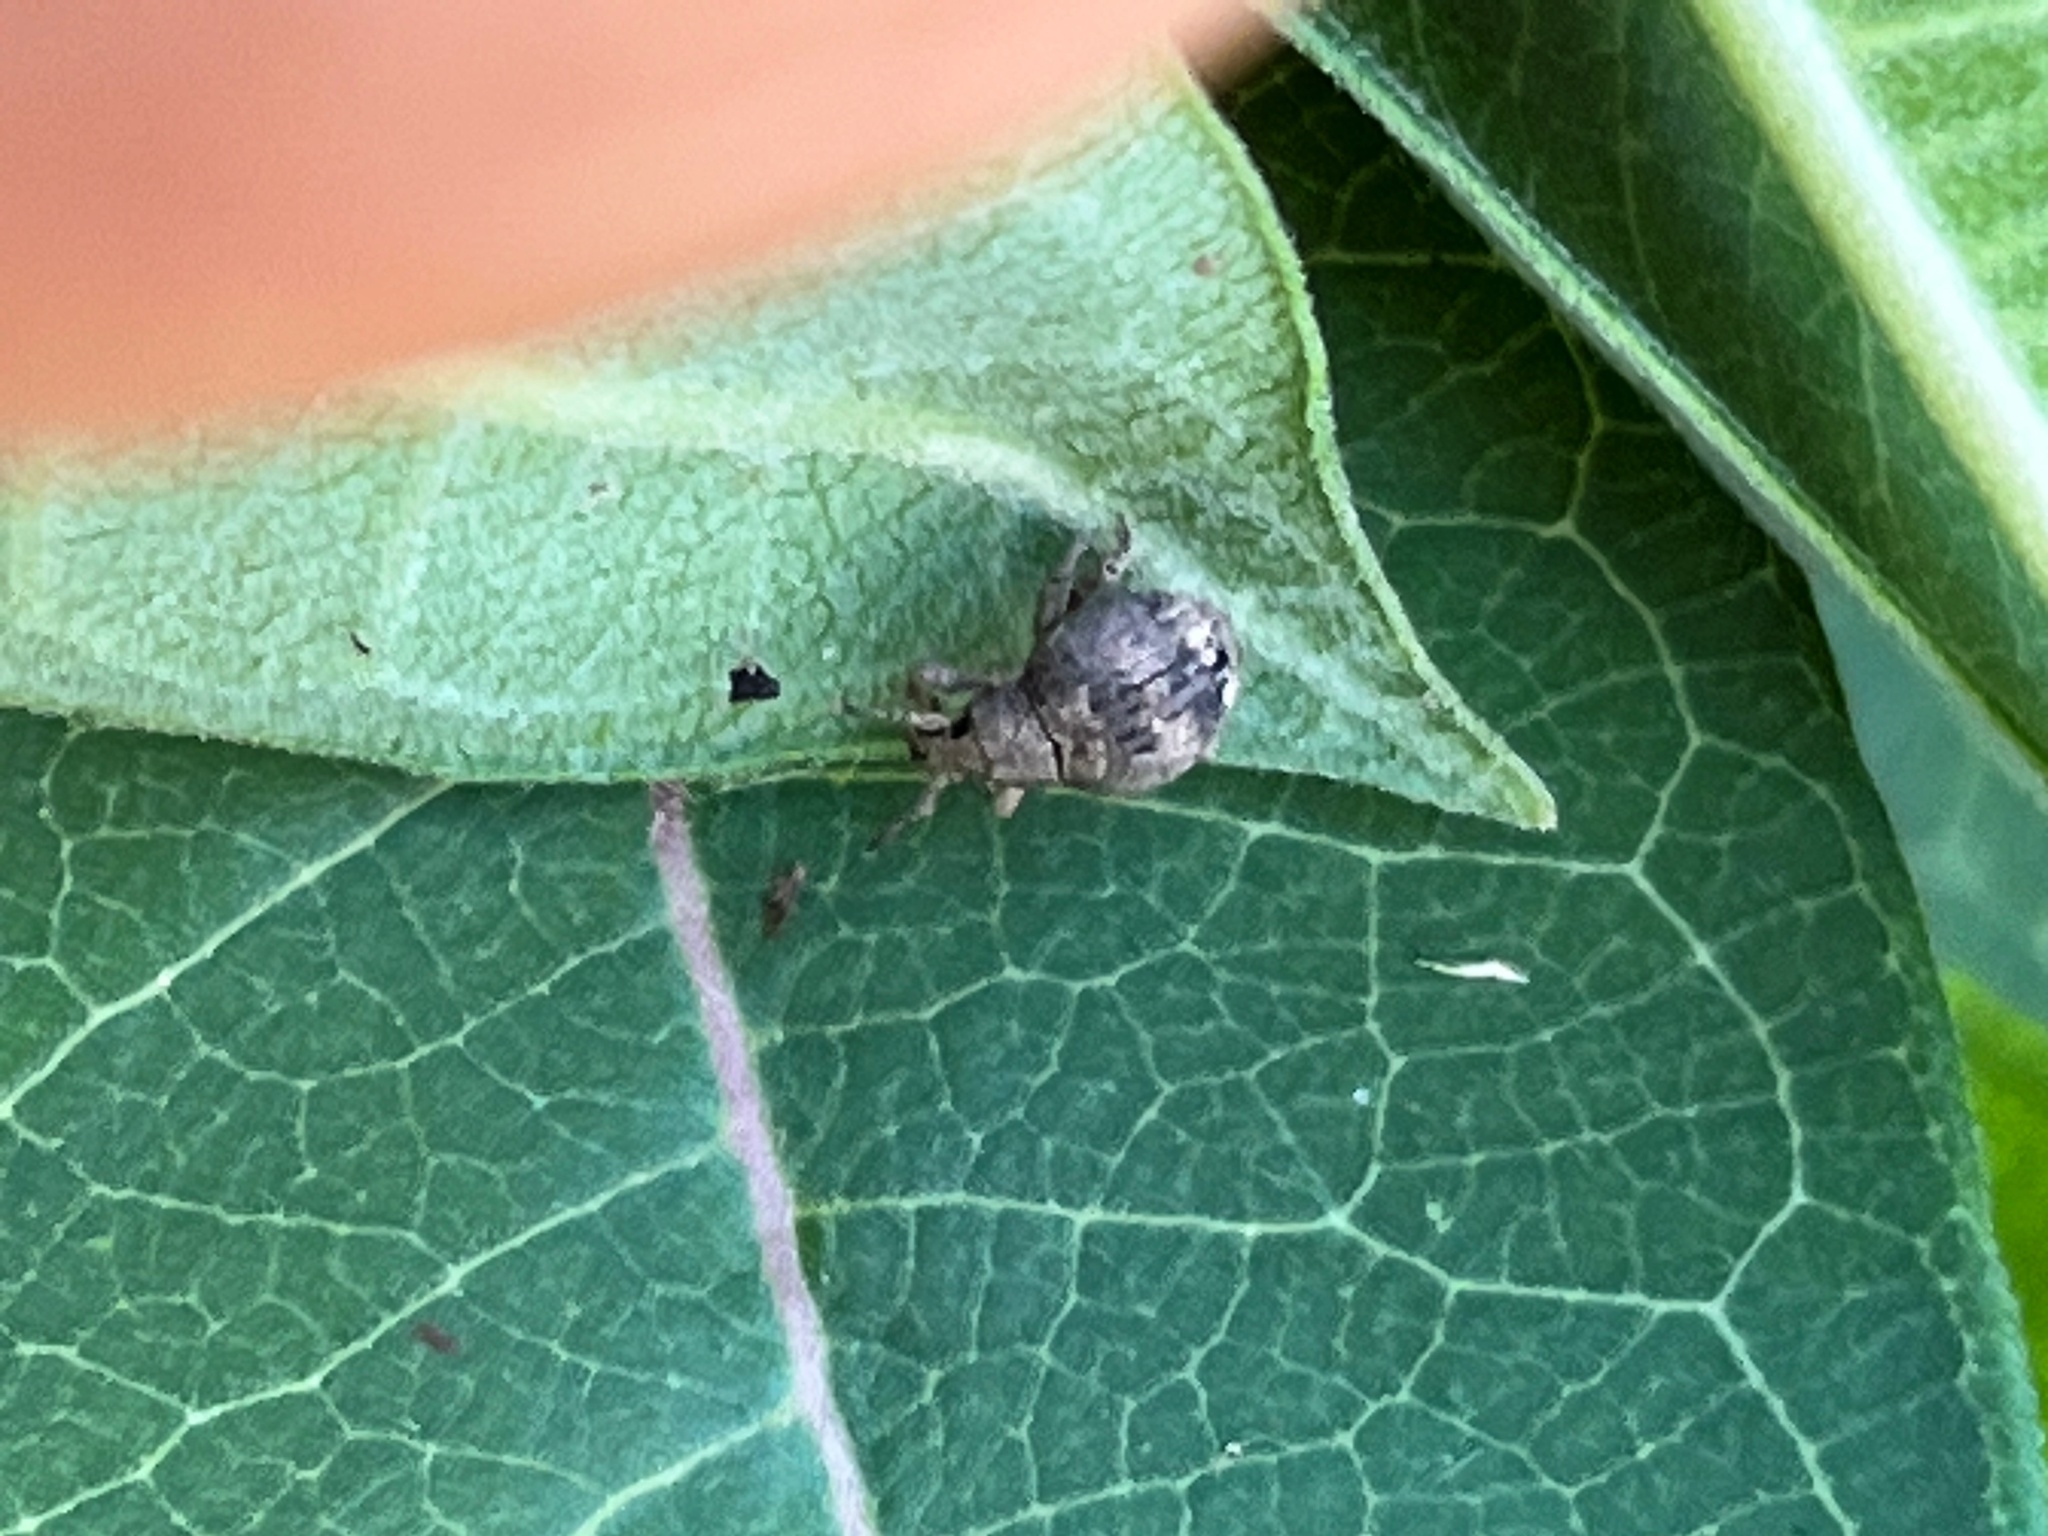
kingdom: Animalia
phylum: Arthropoda
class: Insecta
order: Coleoptera
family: Curculionidae
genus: Pseudocneorhinus
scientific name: Pseudocneorhinus bifasciatus
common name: Two-banded japanese weevil
